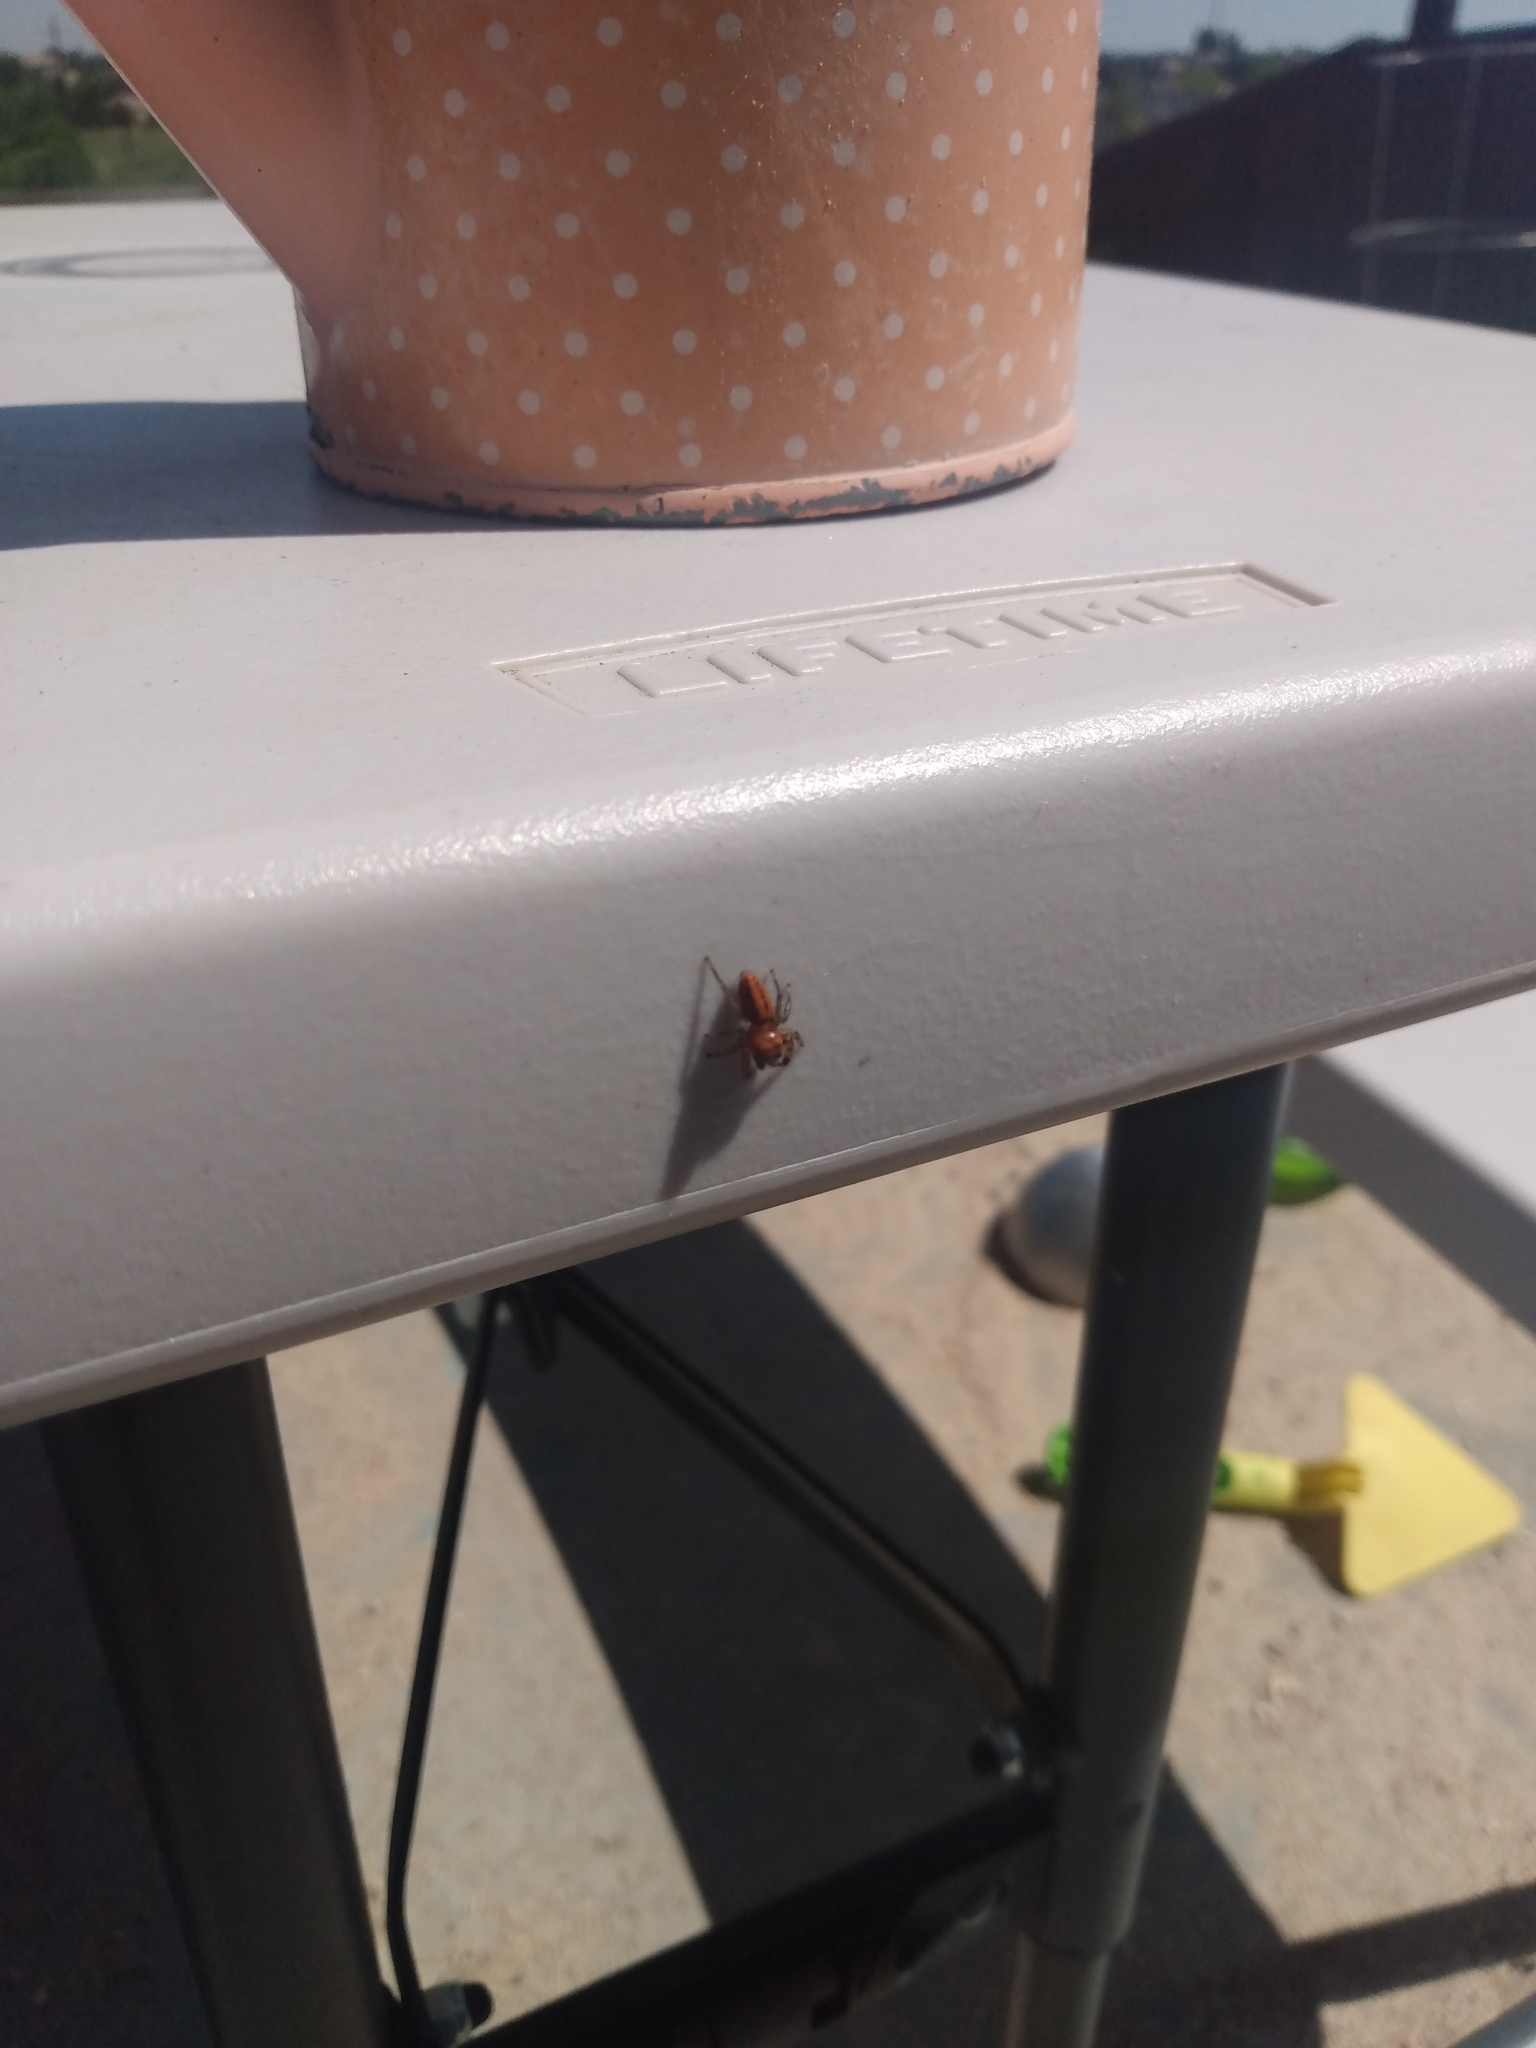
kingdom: Animalia
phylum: Arthropoda
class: Arachnida
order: Araneae
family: Salticidae
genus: Phidippus
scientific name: Phidippus pius
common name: Jumping spiders
